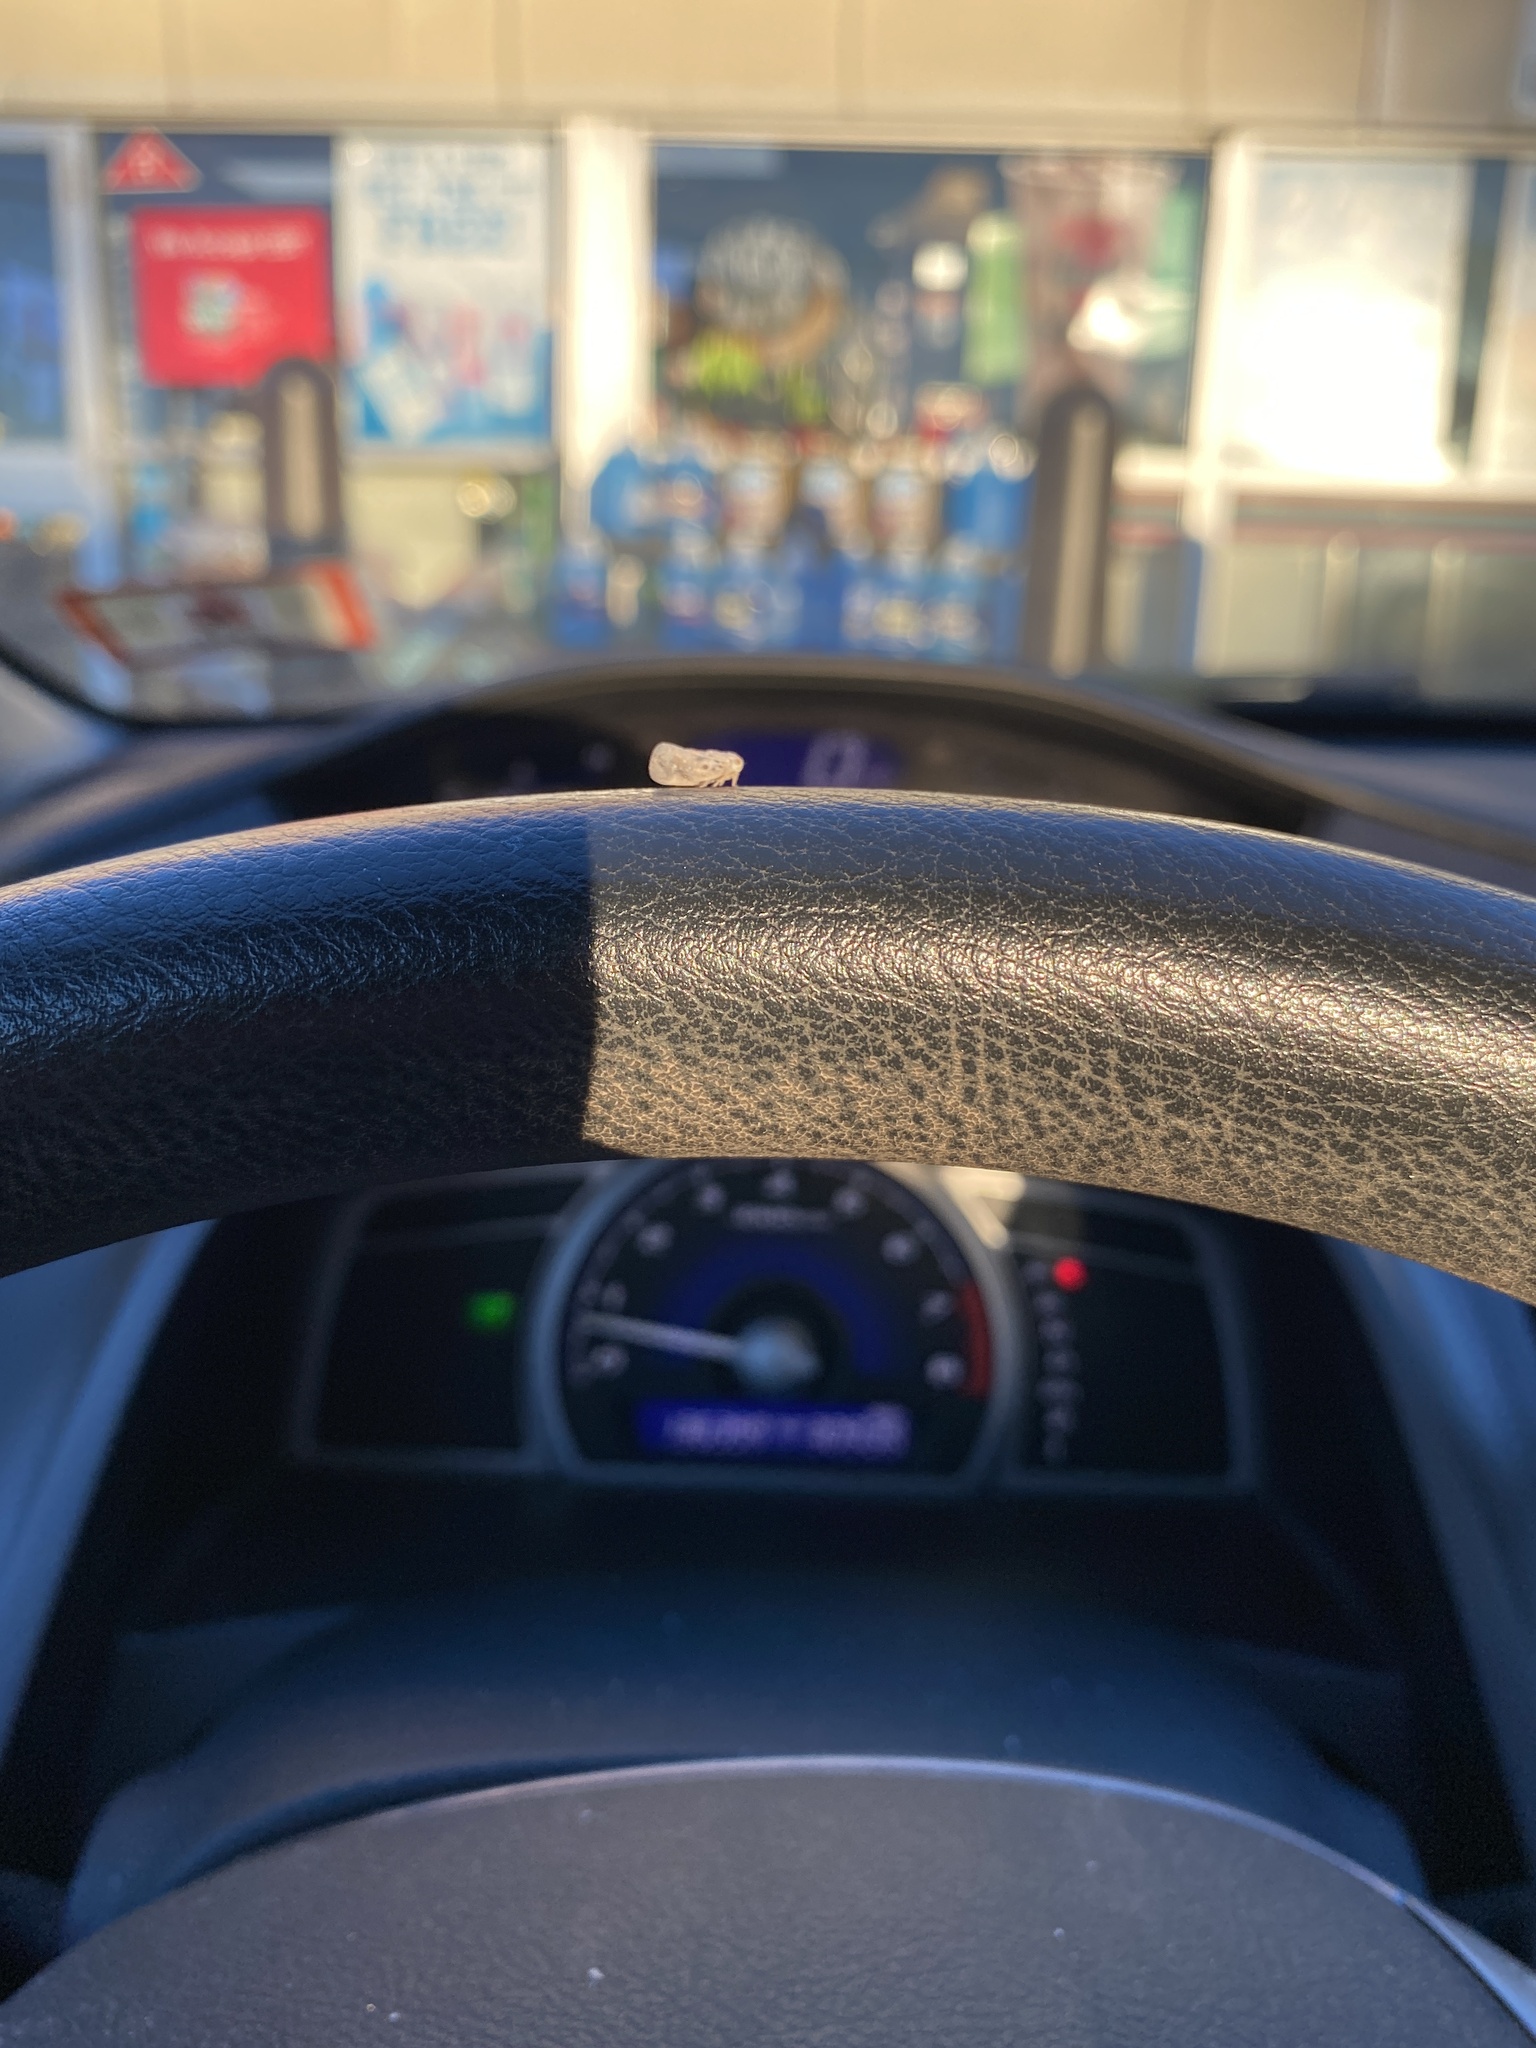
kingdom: Animalia
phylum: Arthropoda
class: Insecta
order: Hemiptera
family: Flatidae
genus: Metcalfa
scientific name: Metcalfa pruinosa
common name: Citrus flatid planthopper
